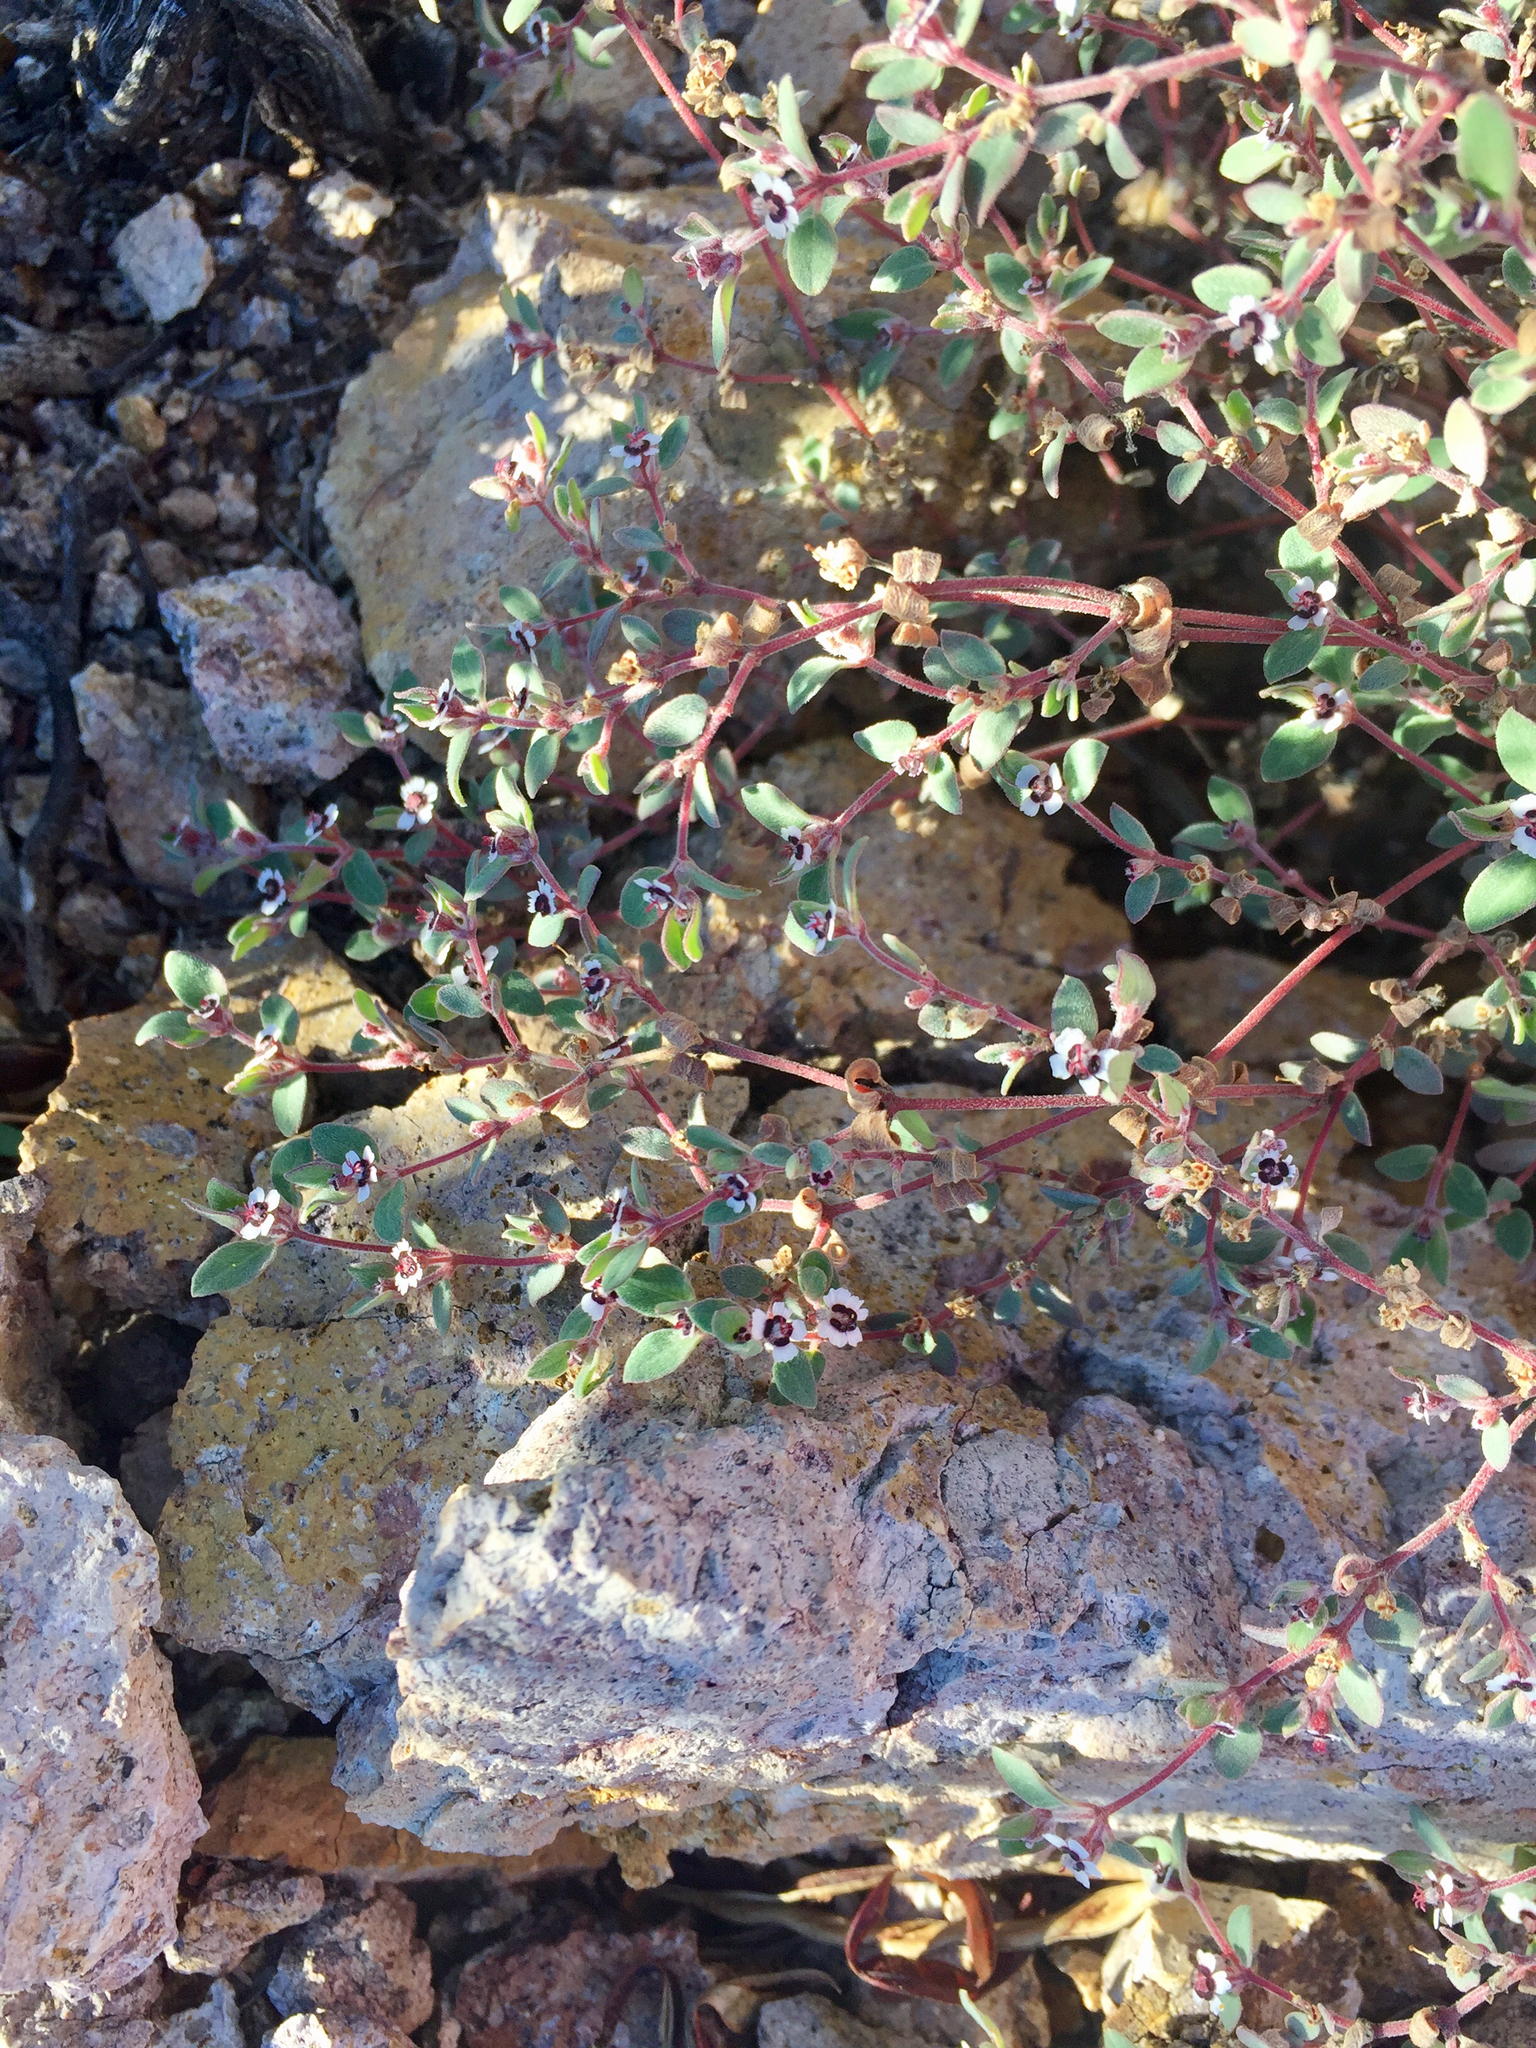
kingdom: Plantae
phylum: Tracheophyta
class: Magnoliopsida
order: Malpighiales
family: Euphorbiaceae
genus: Euphorbia
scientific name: Euphorbia melanadenia
